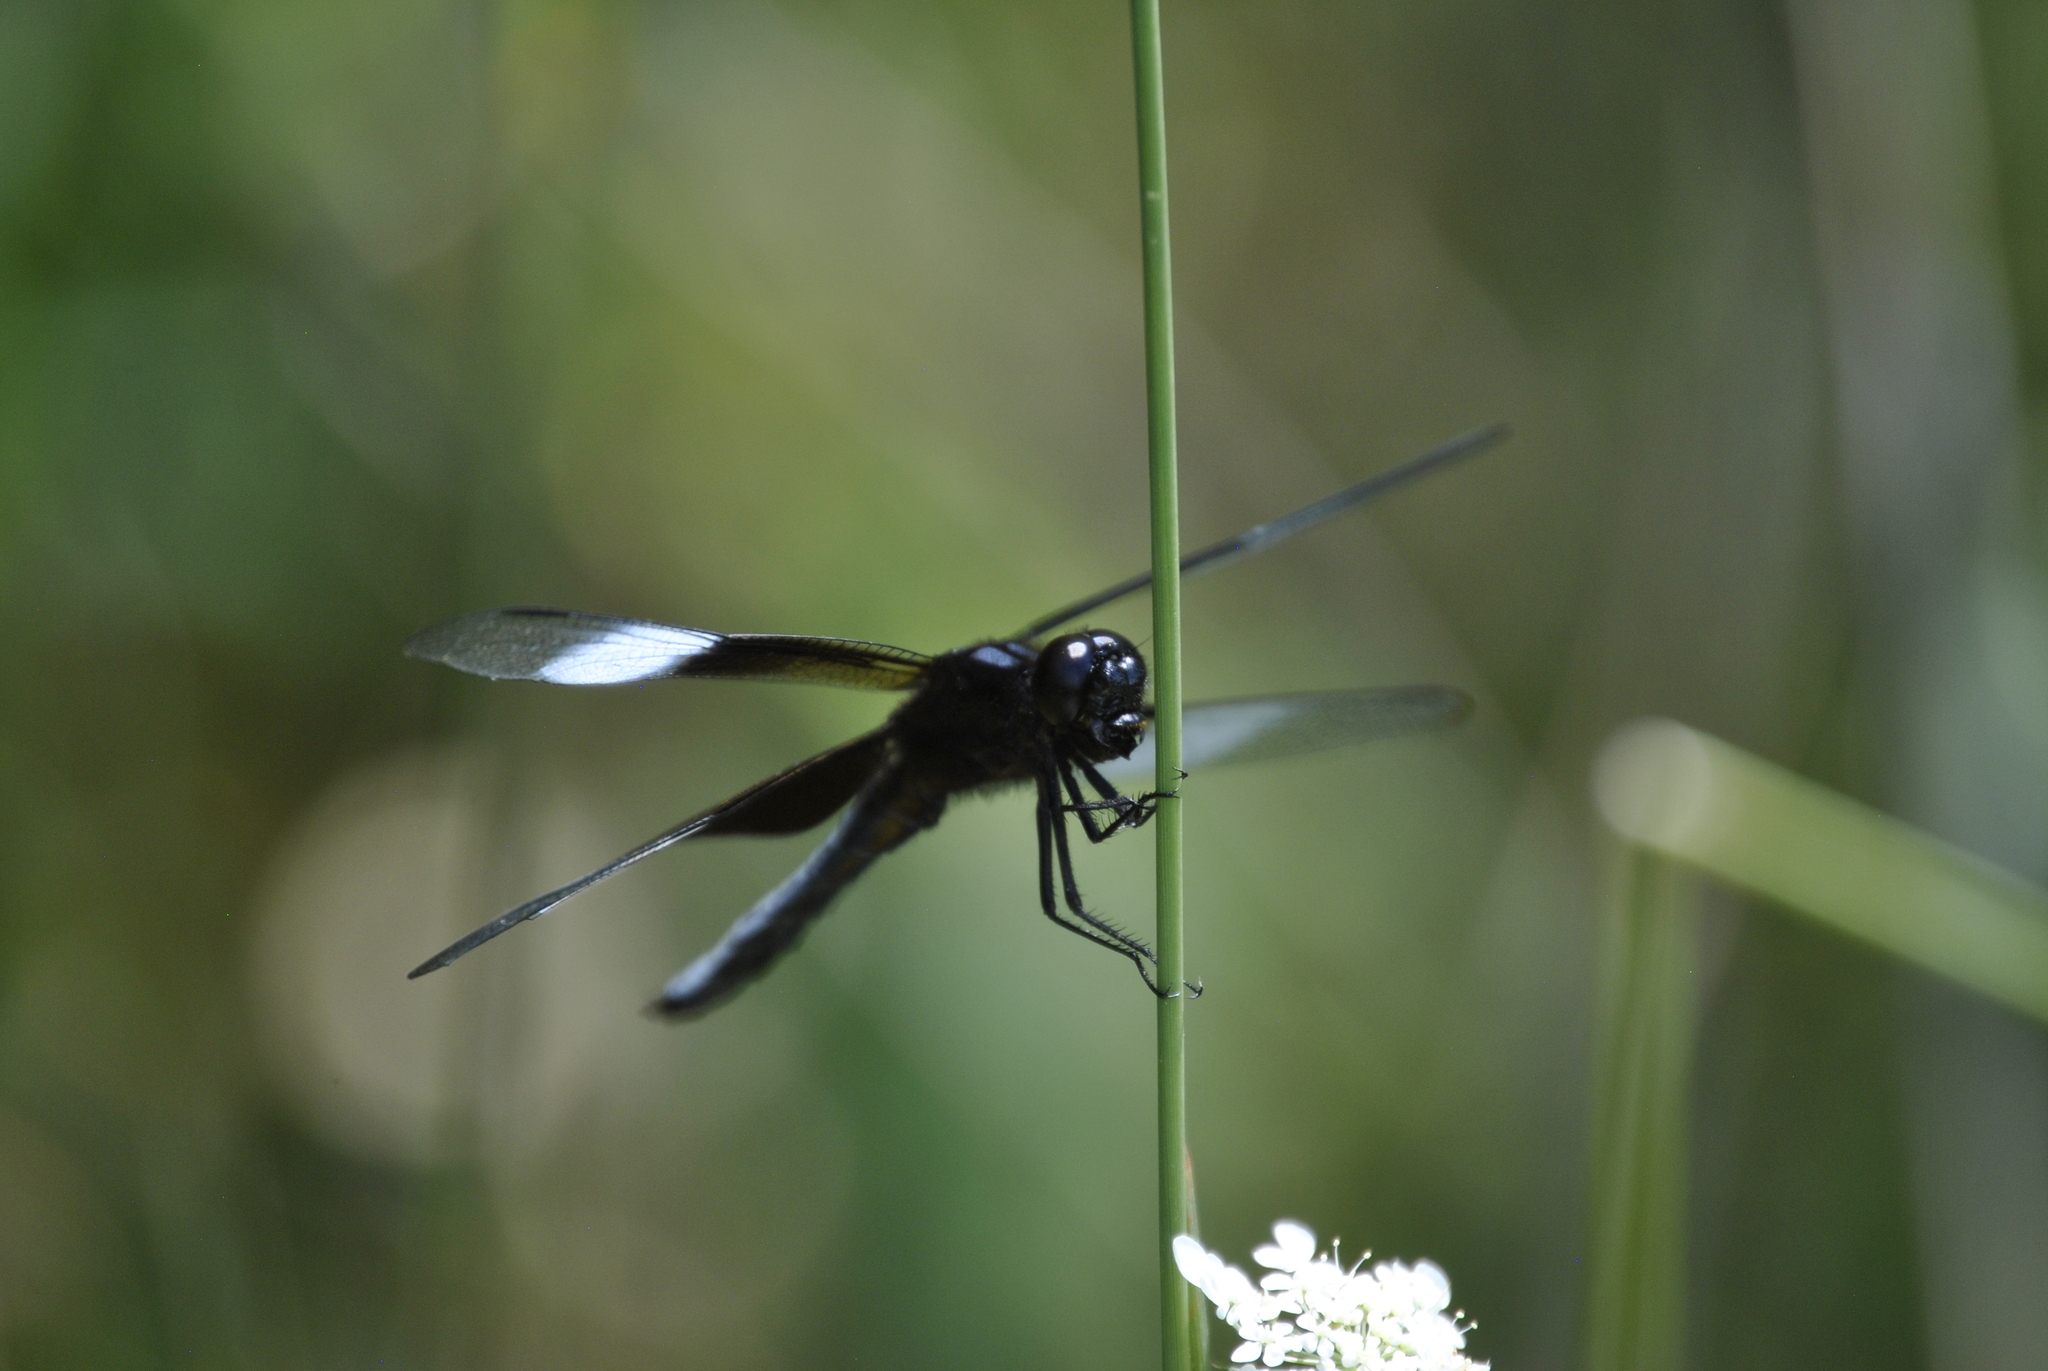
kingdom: Animalia
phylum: Arthropoda
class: Insecta
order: Odonata
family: Libellulidae
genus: Libellula
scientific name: Libellula luctuosa
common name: Widow skimmer
